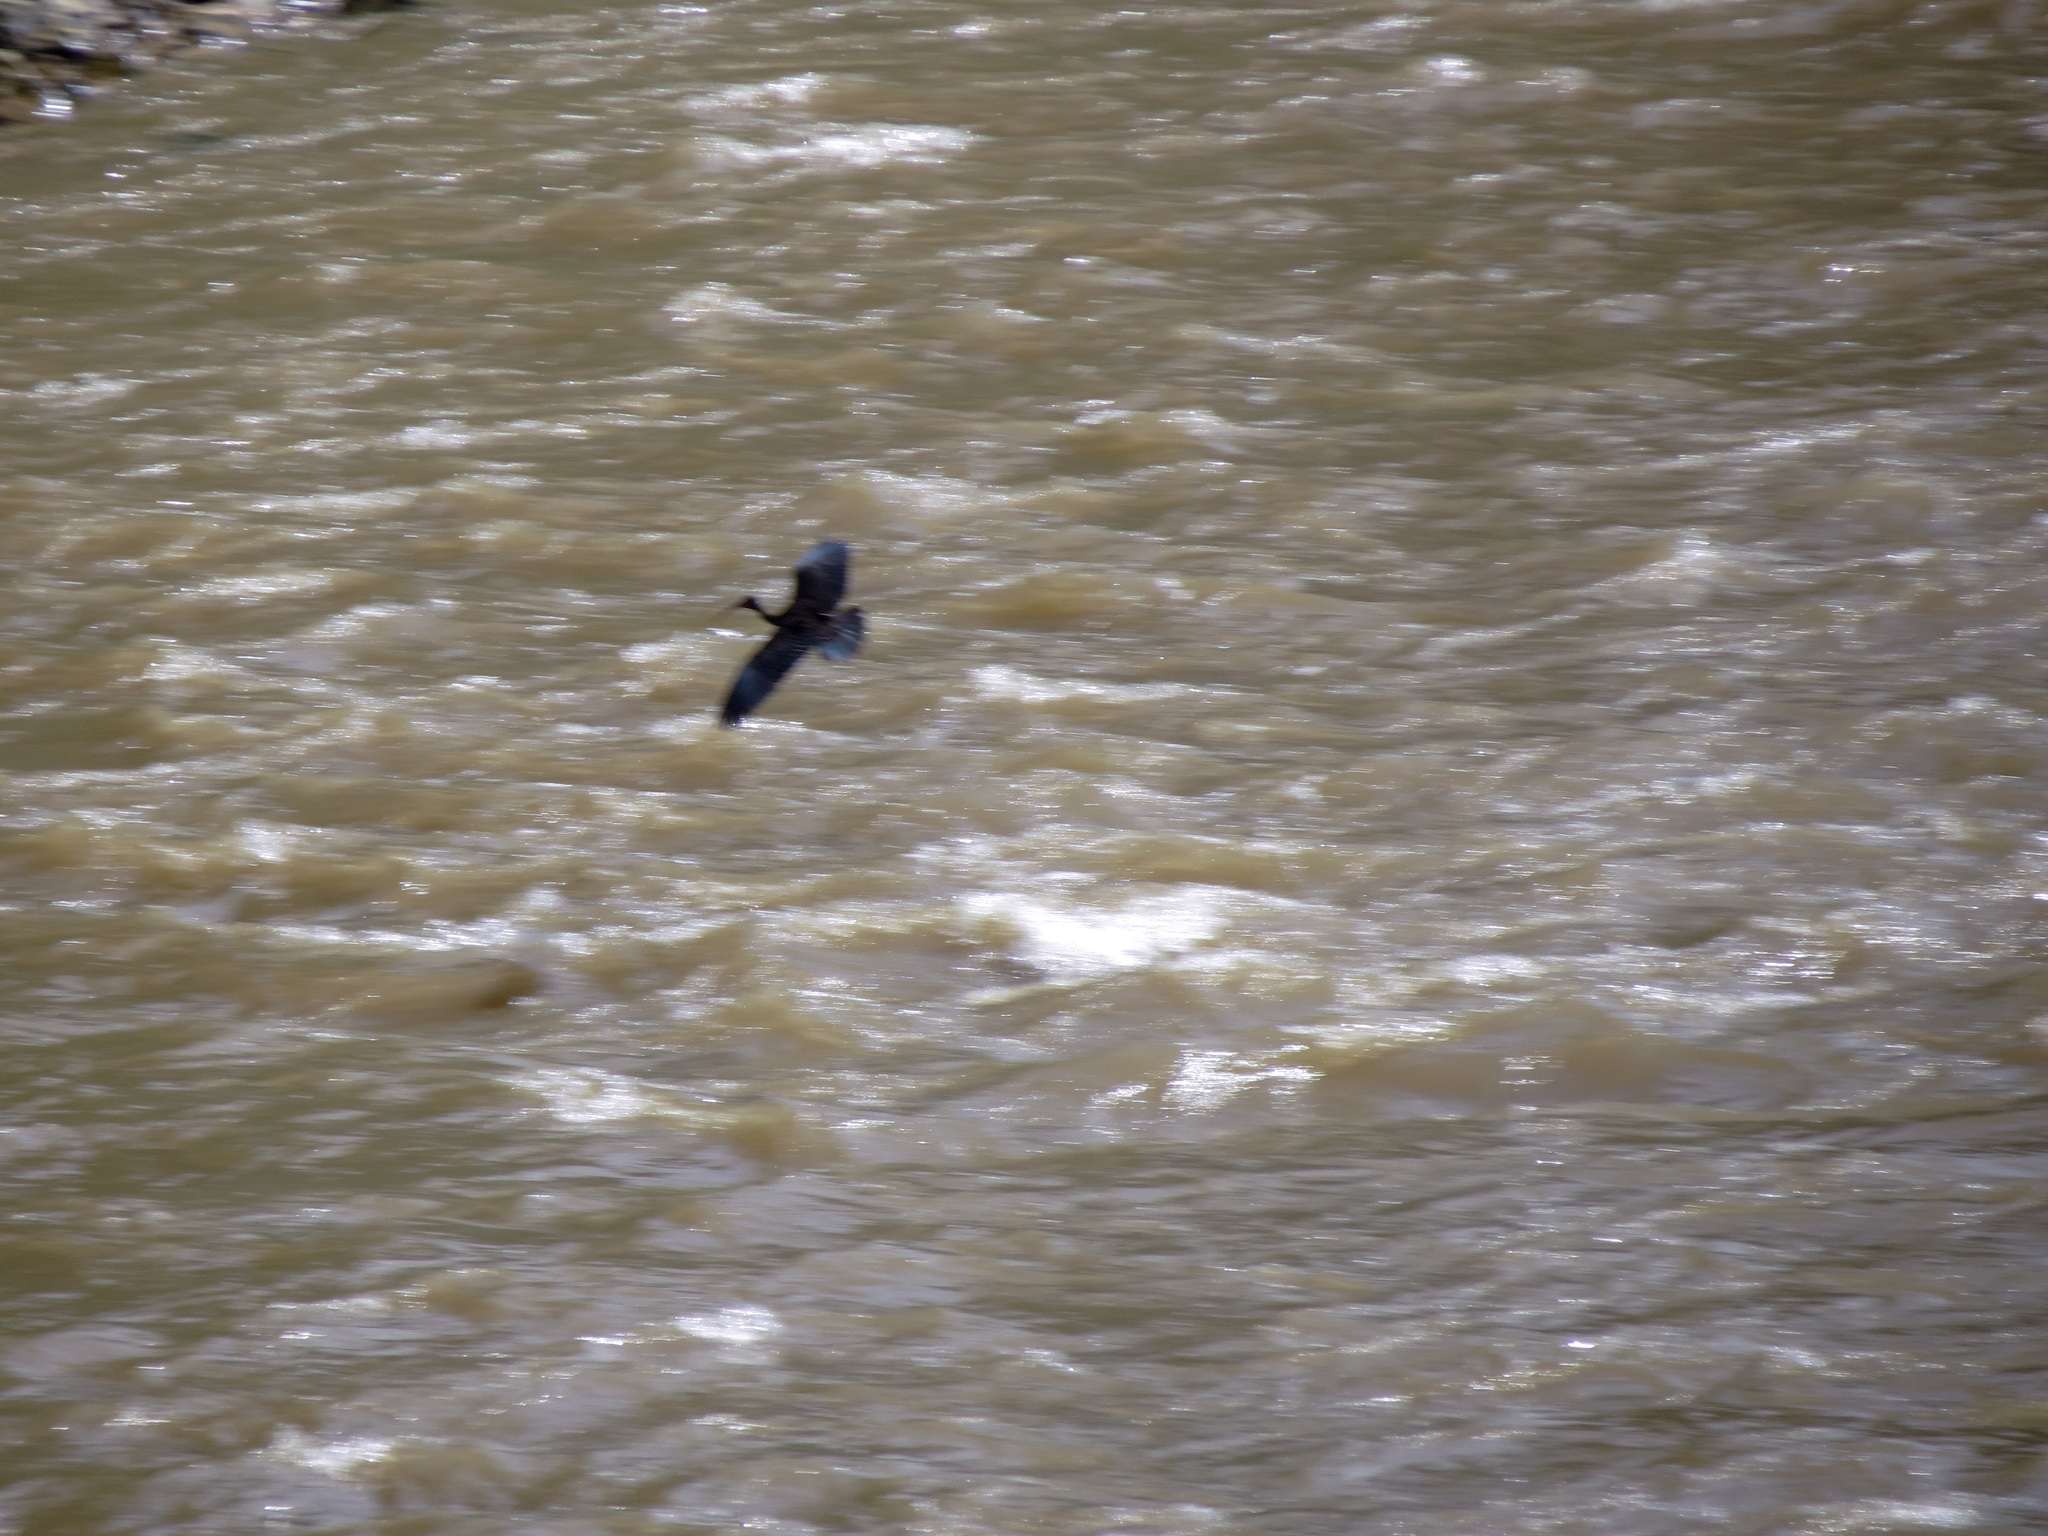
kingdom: Animalia
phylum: Chordata
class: Aves
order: Pelecaniformes
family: Threskiornithidae
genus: Phimosus
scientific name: Phimosus infuscatus
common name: Bare-faced ibis
